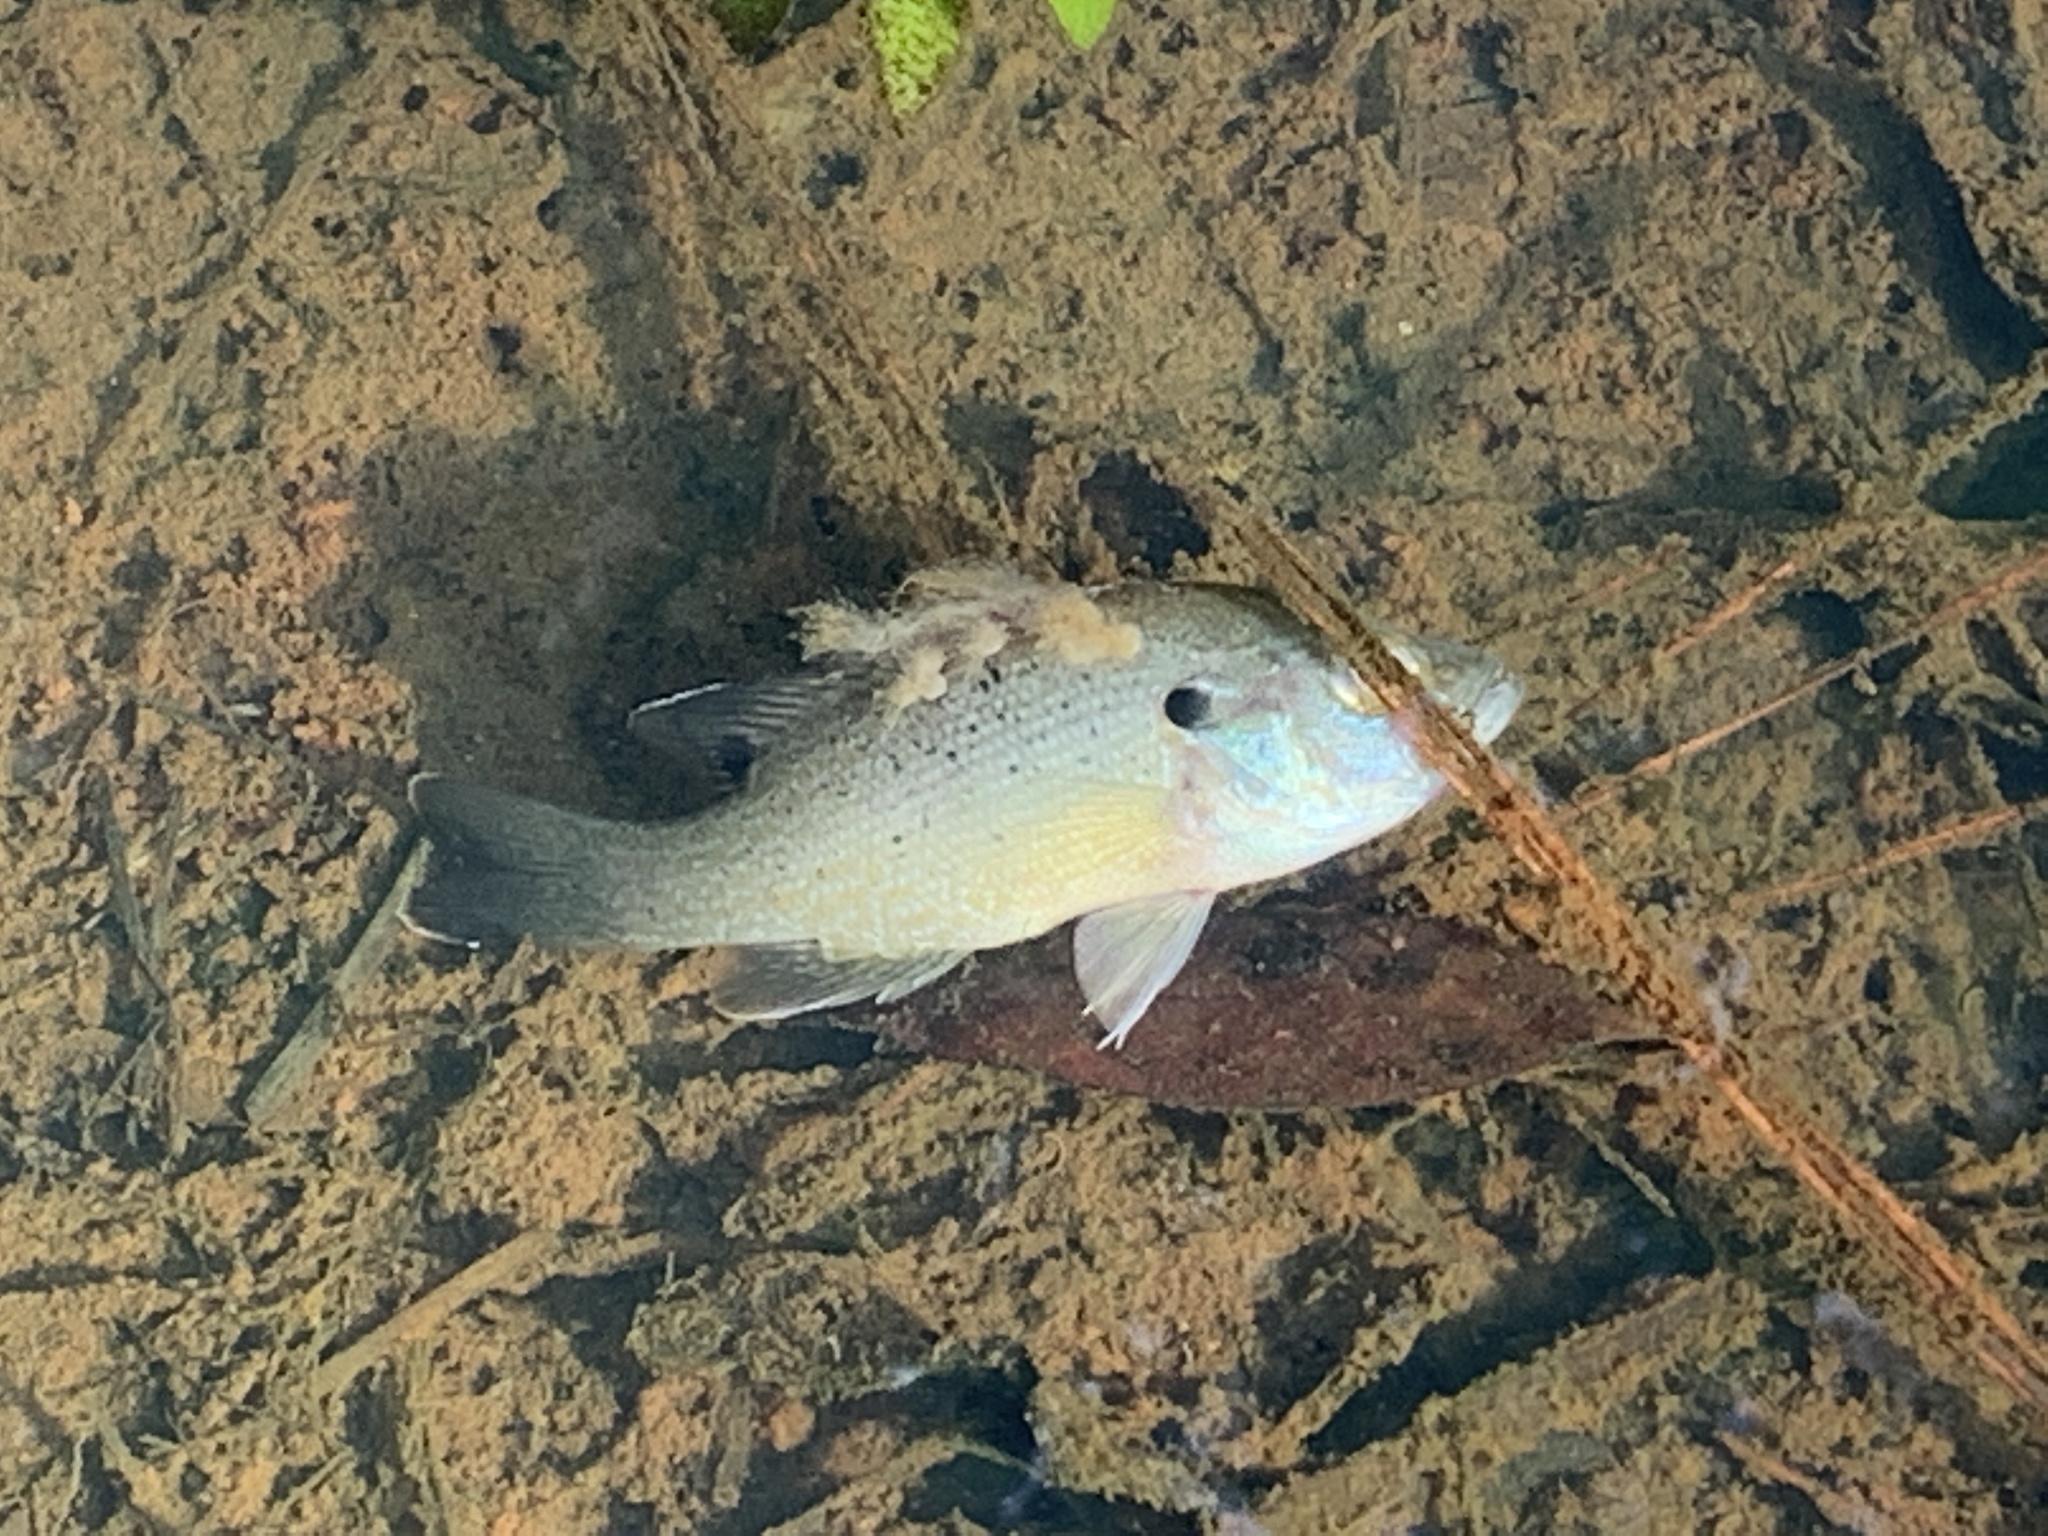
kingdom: Animalia
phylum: Chordata
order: Perciformes
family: Centrarchidae
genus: Lepomis
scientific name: Lepomis cyanellus
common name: Green sunfish
